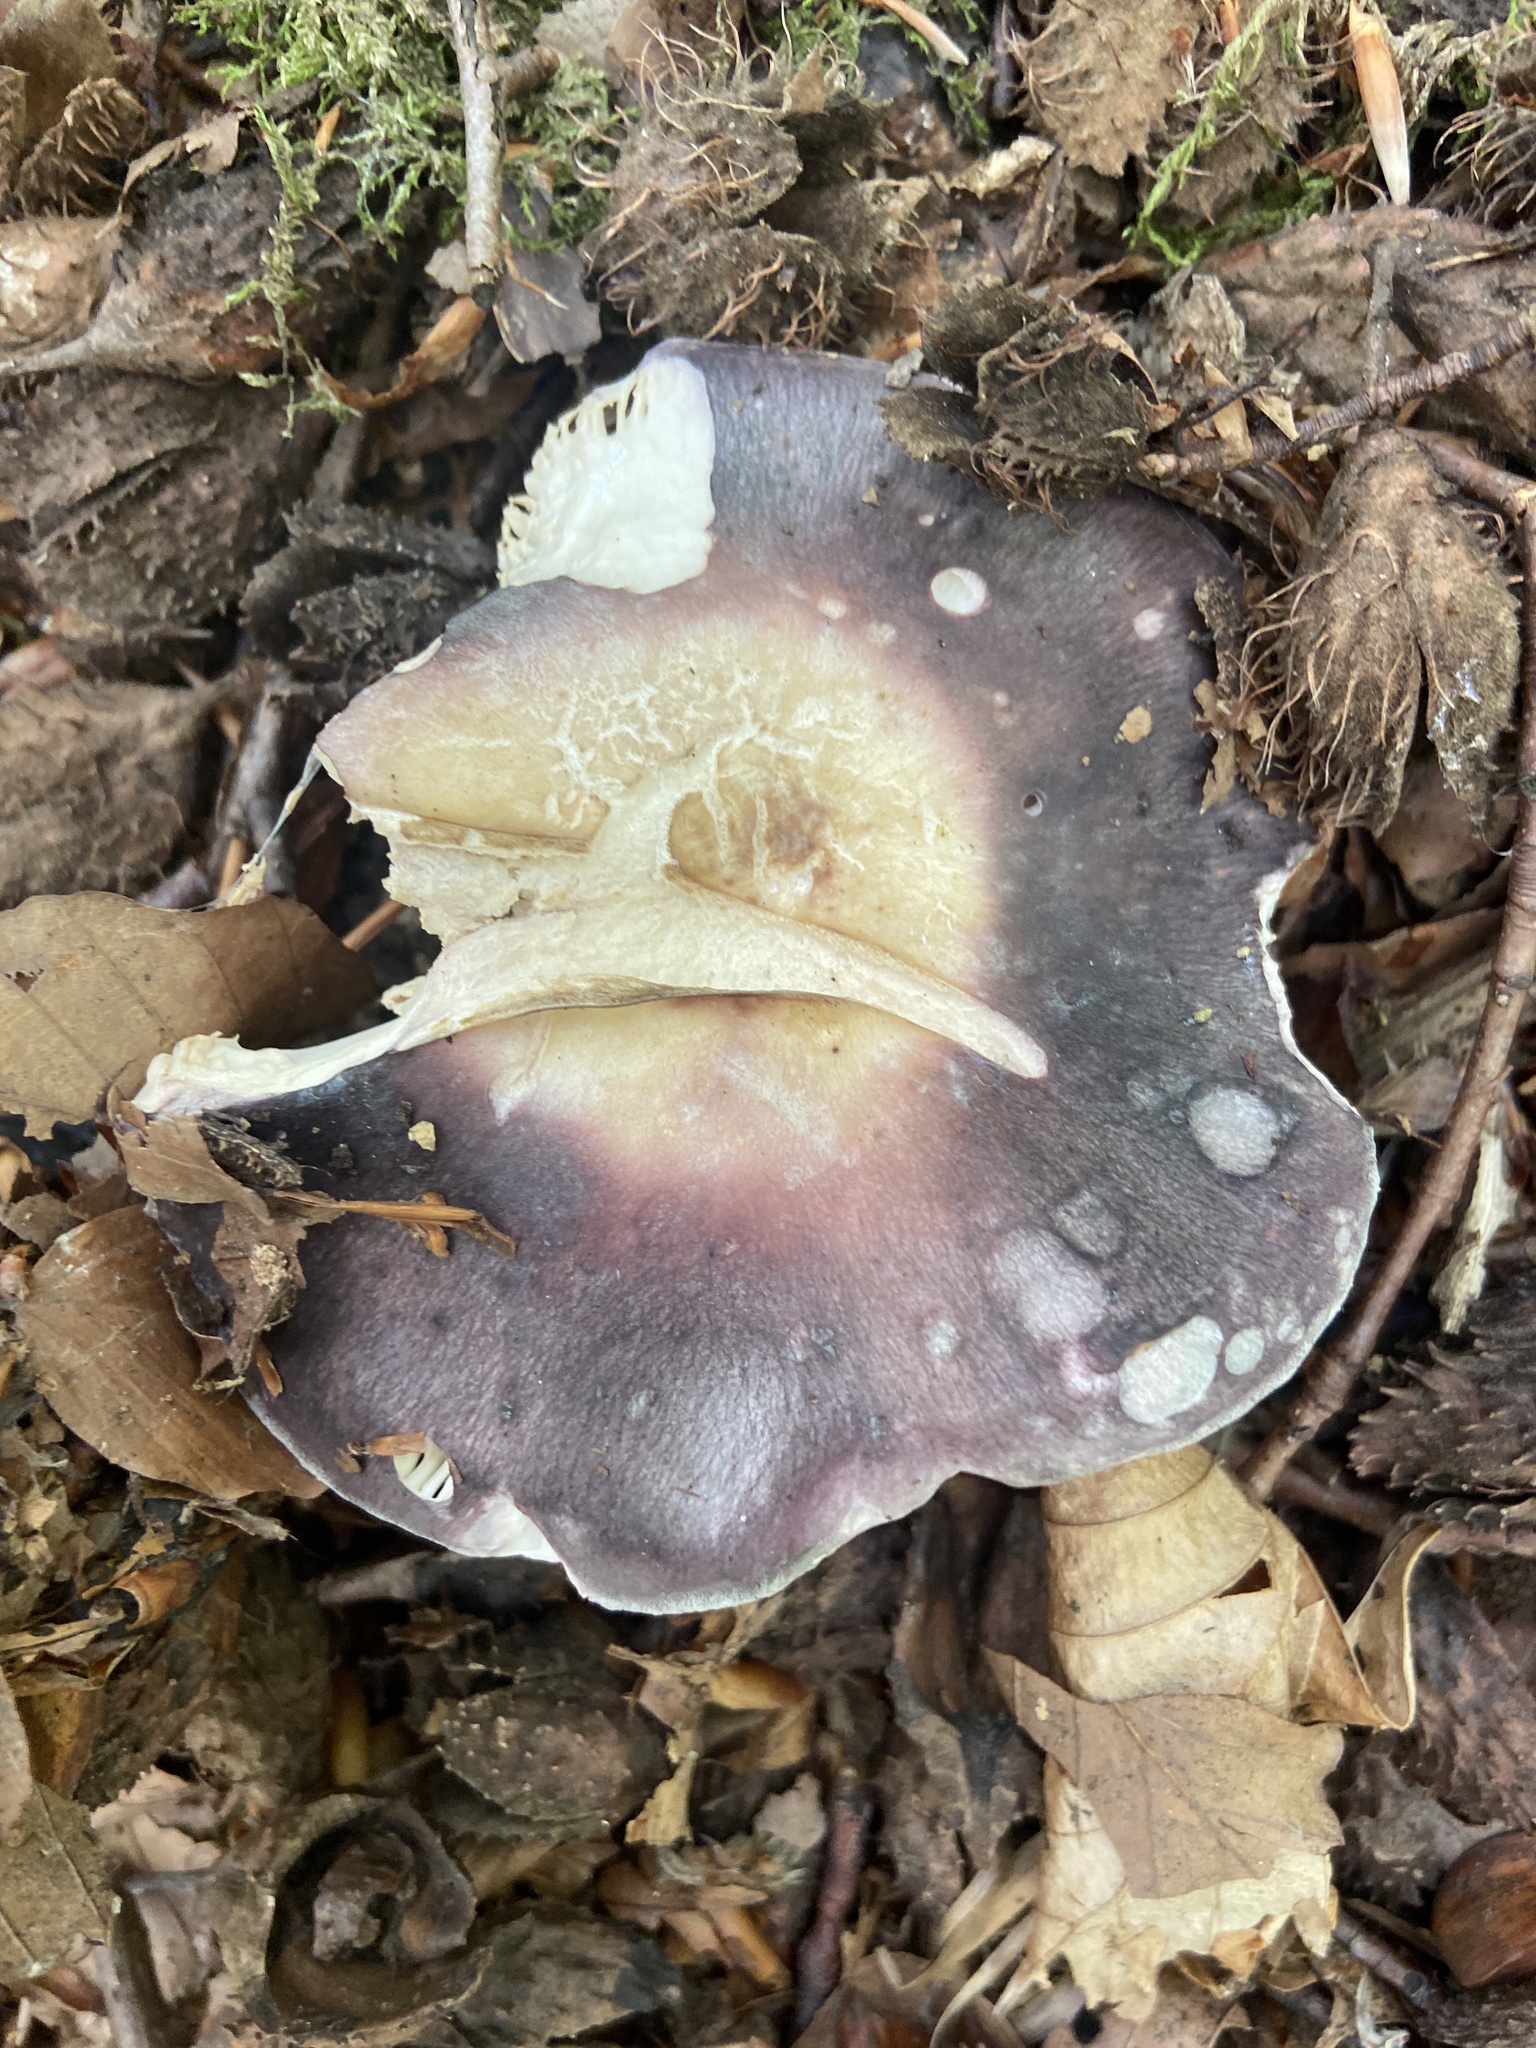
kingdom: Fungi
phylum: Basidiomycota
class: Agaricomycetes
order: Russulales
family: Russulaceae
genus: Russula
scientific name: Russula cyanoxantha
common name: Charcoal burner
